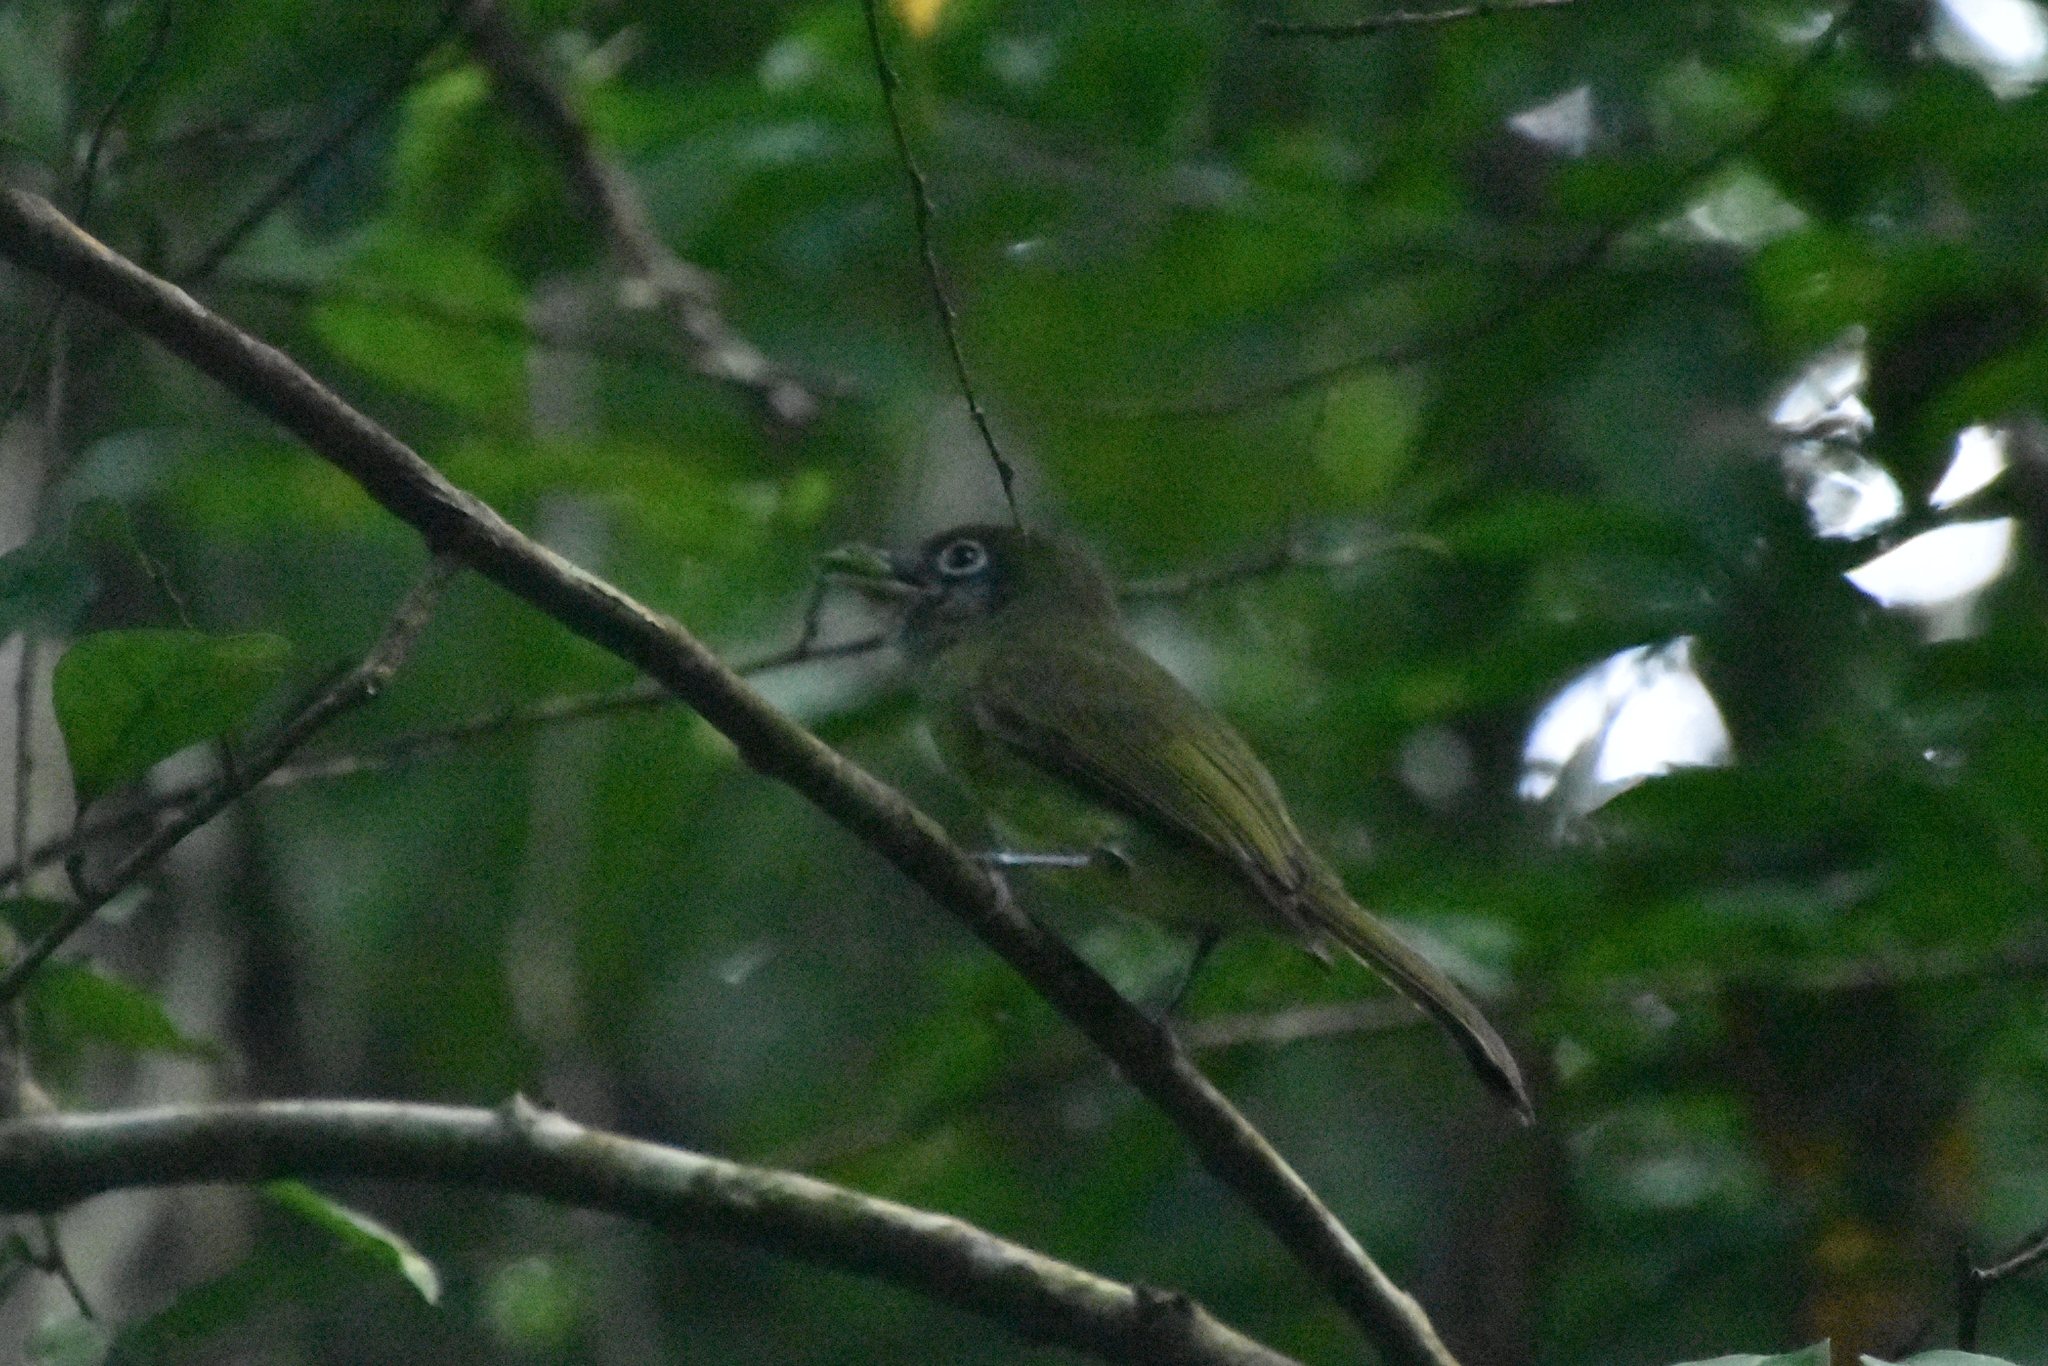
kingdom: Animalia
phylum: Chordata
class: Aves
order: Passeriformes
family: Tyrannidae
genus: Rhynchocyclus
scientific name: Rhynchocyclus brevirostris
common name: Eye-ringed flatbill
